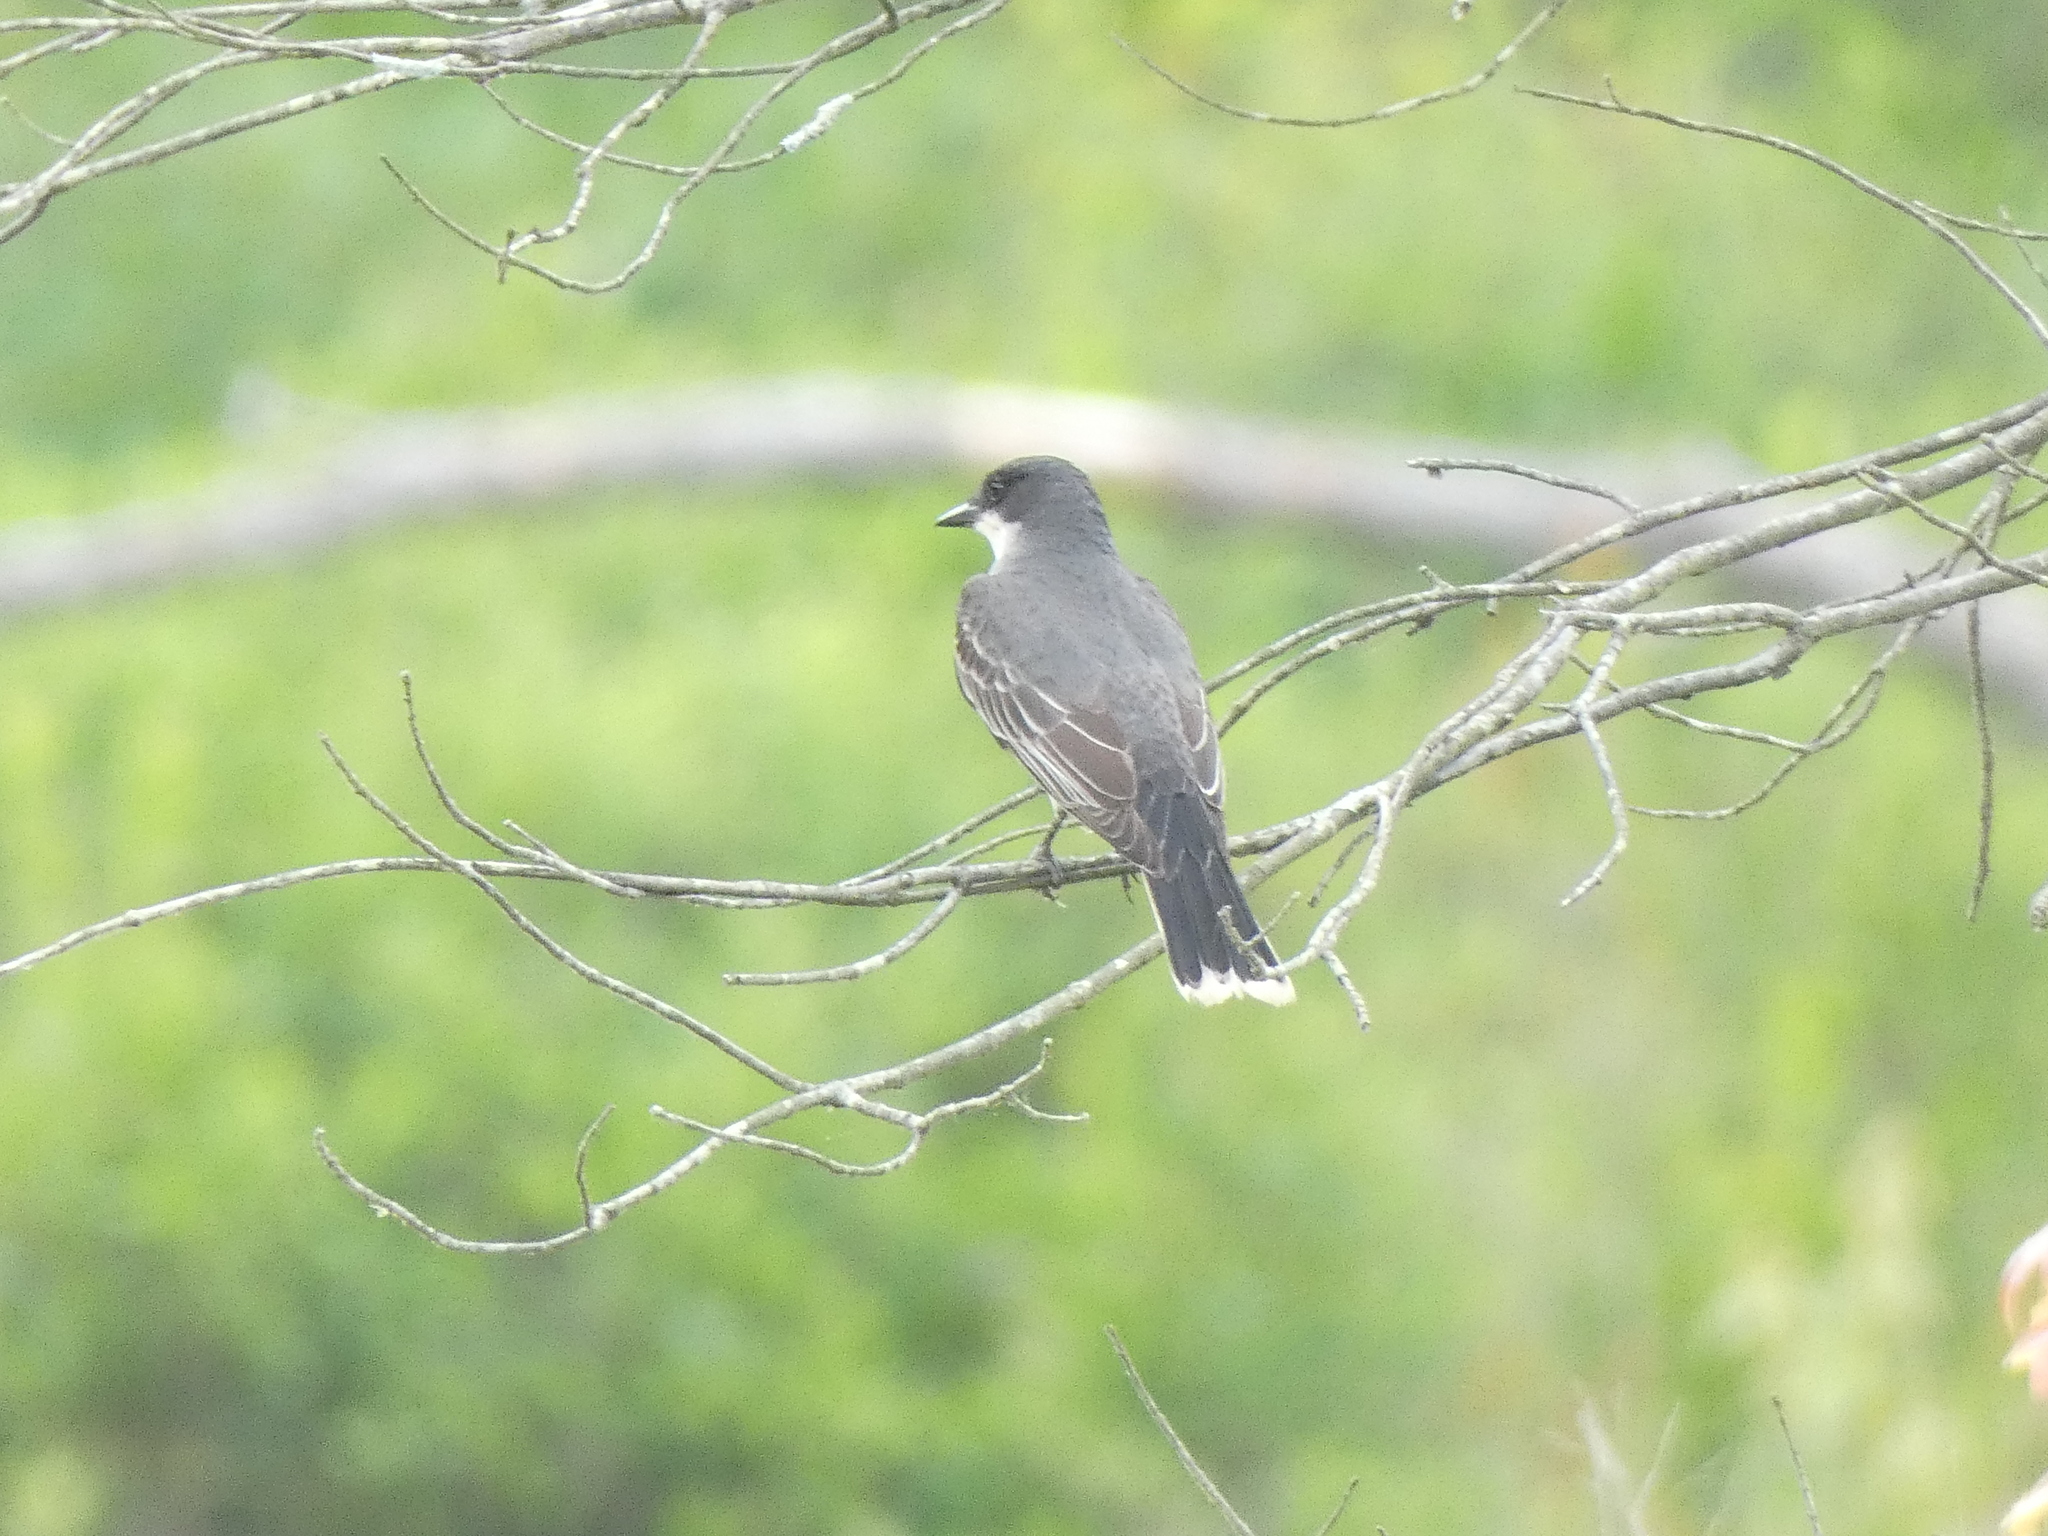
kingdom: Animalia
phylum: Chordata
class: Aves
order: Passeriformes
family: Tyrannidae
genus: Tyrannus
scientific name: Tyrannus tyrannus
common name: Eastern kingbird
